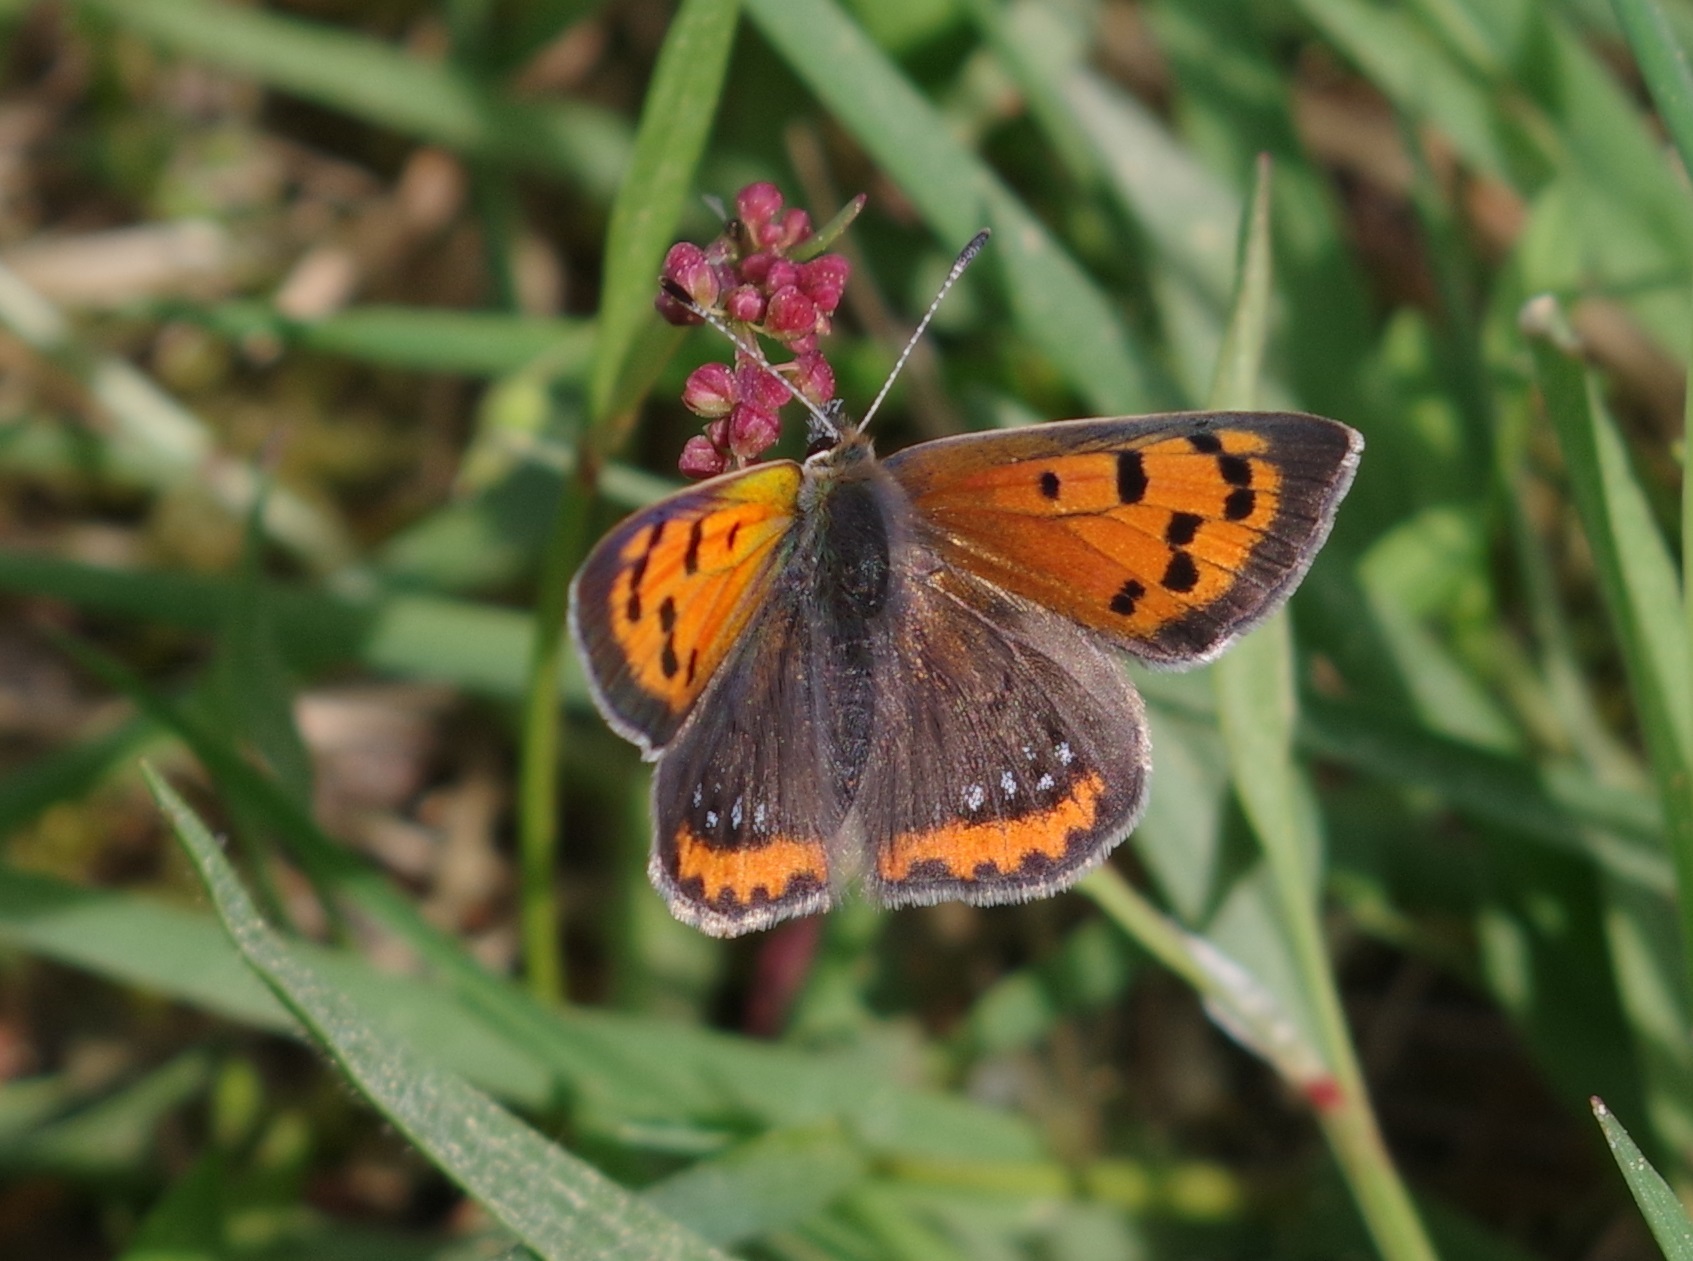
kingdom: Animalia
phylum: Arthropoda
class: Insecta
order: Lepidoptera
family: Lycaenidae
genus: Lycaena
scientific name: Lycaena phlaeas
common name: Small copper
